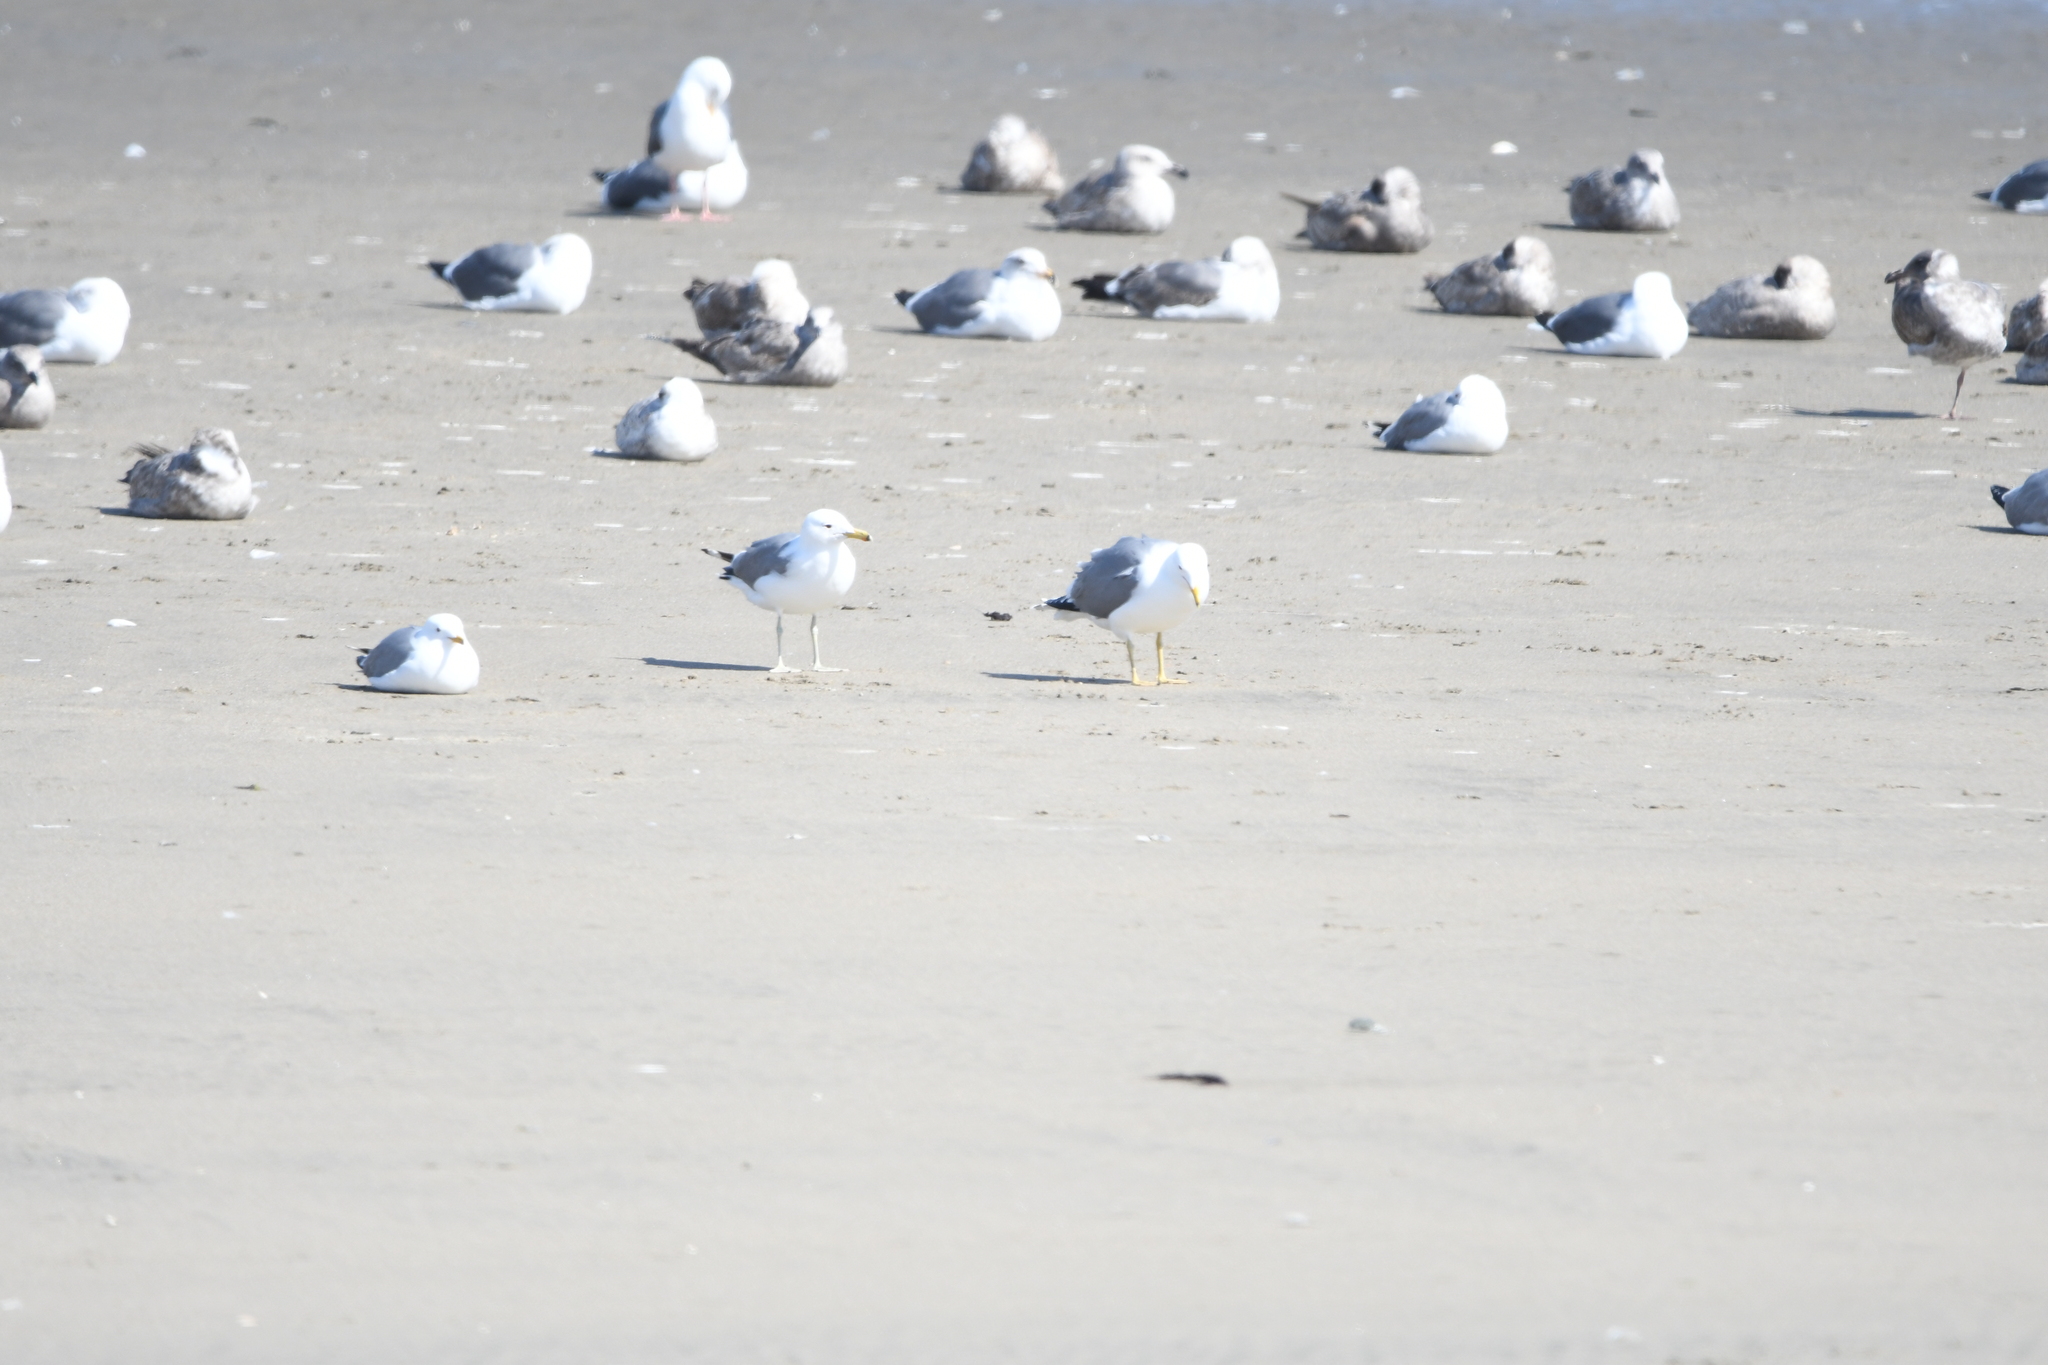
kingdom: Animalia
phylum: Chordata
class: Aves
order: Charadriiformes
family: Laridae
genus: Larus
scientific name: Larus californicus
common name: California gull
